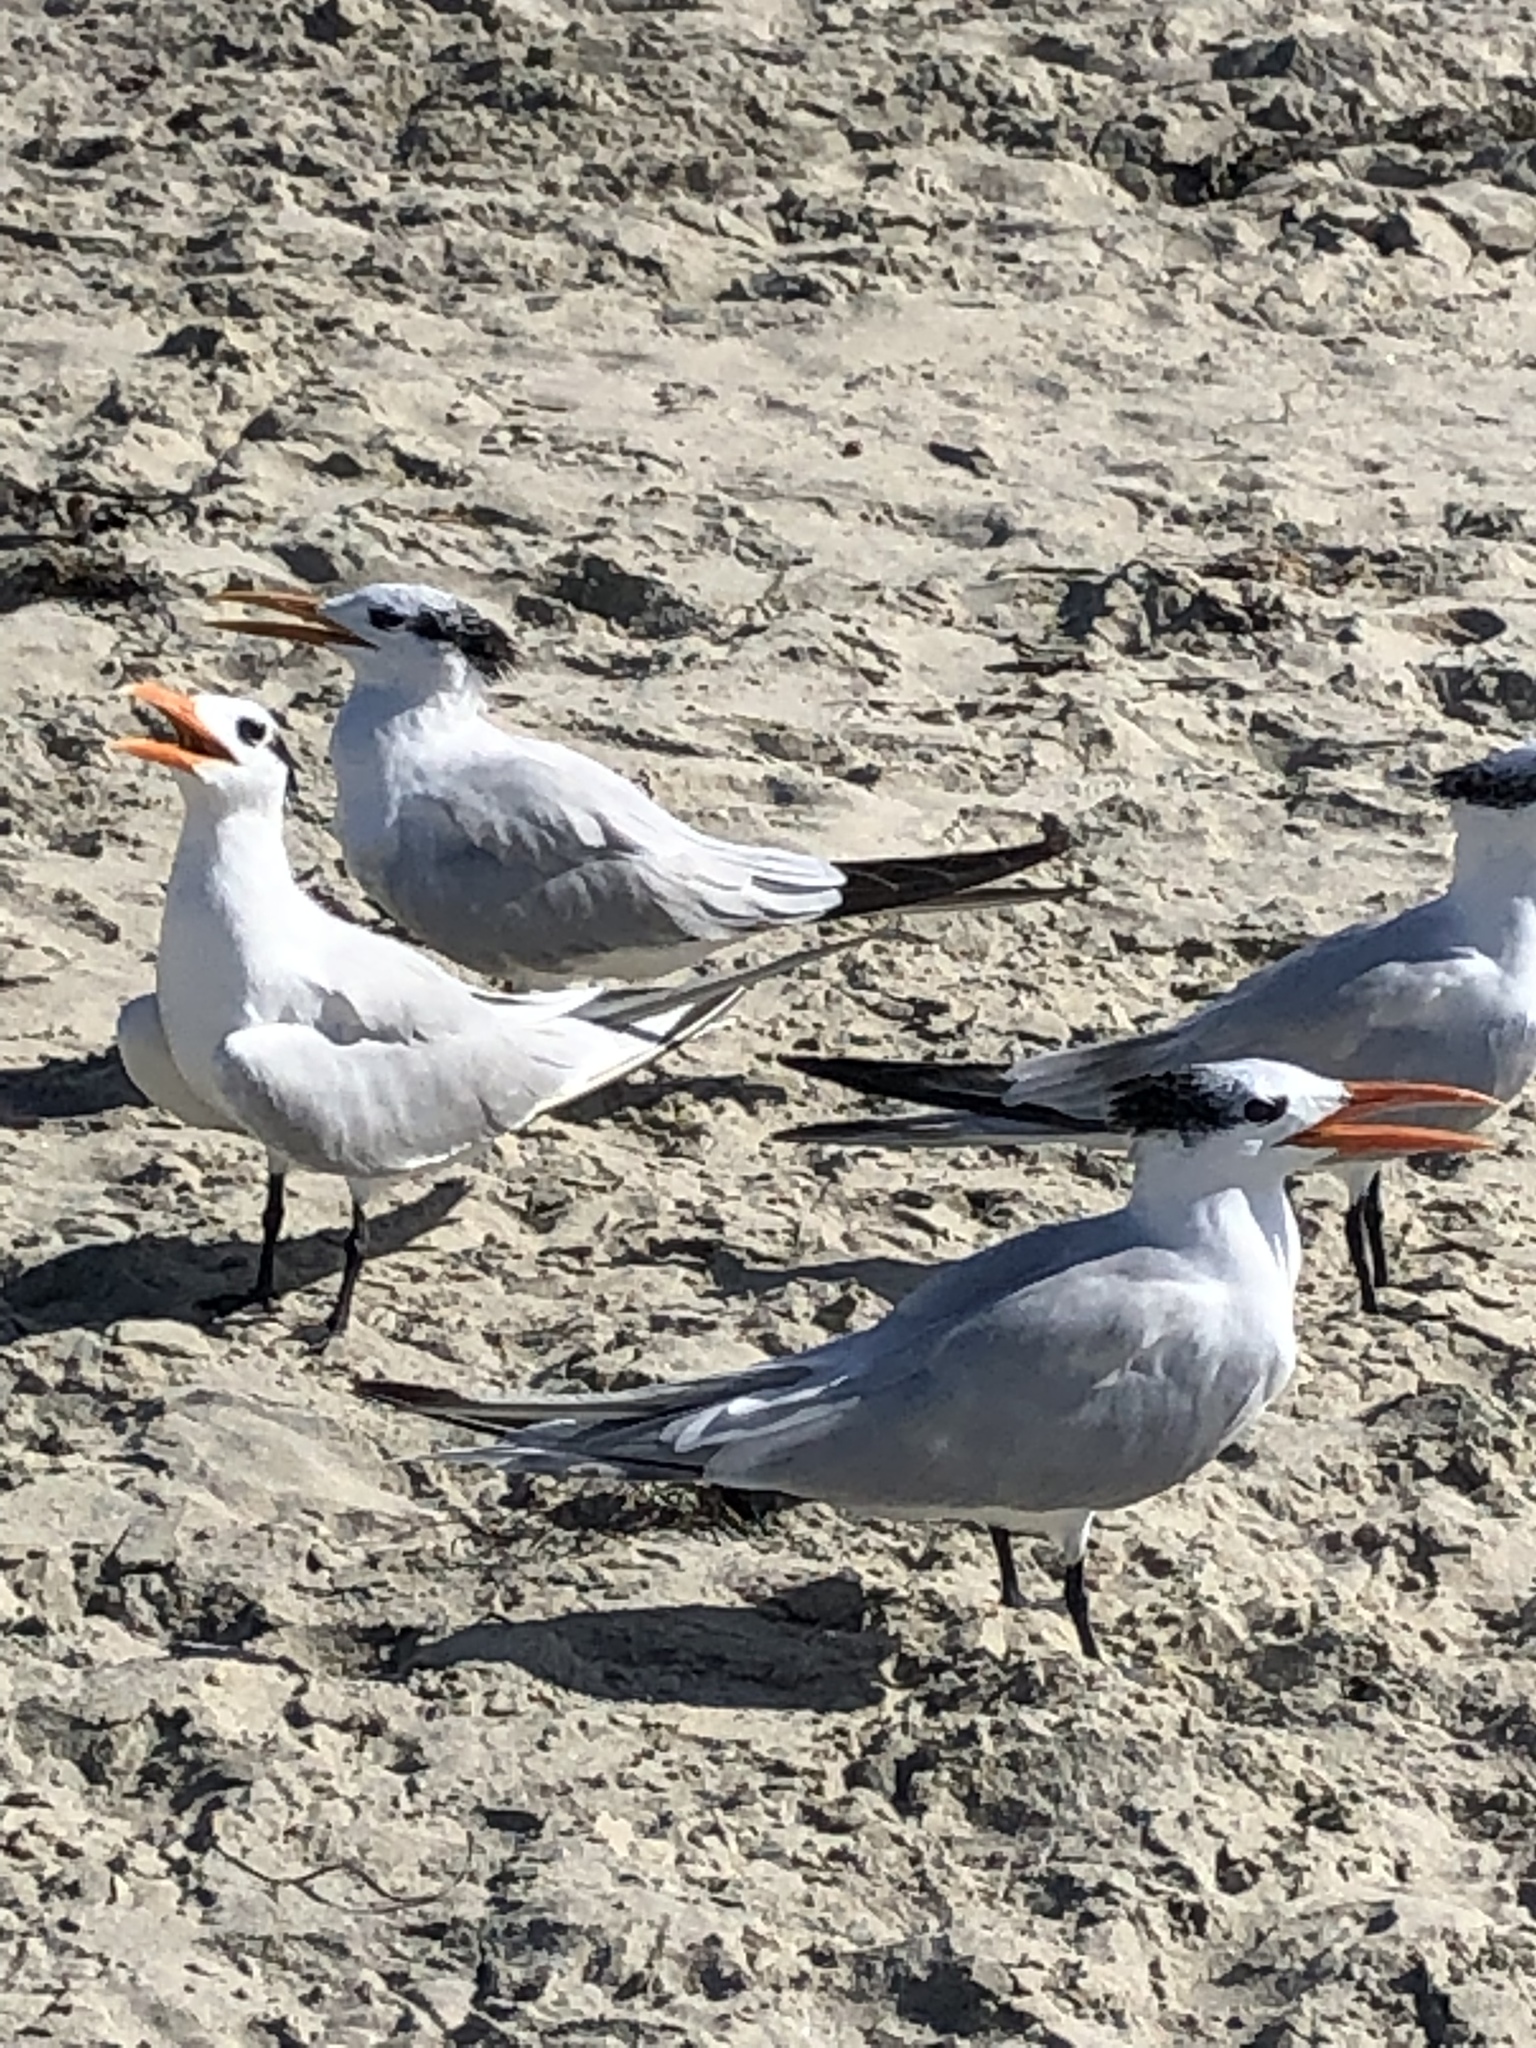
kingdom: Animalia
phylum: Chordata
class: Aves
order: Charadriiformes
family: Laridae
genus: Thalasseus
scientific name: Thalasseus maximus
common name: Royal tern
